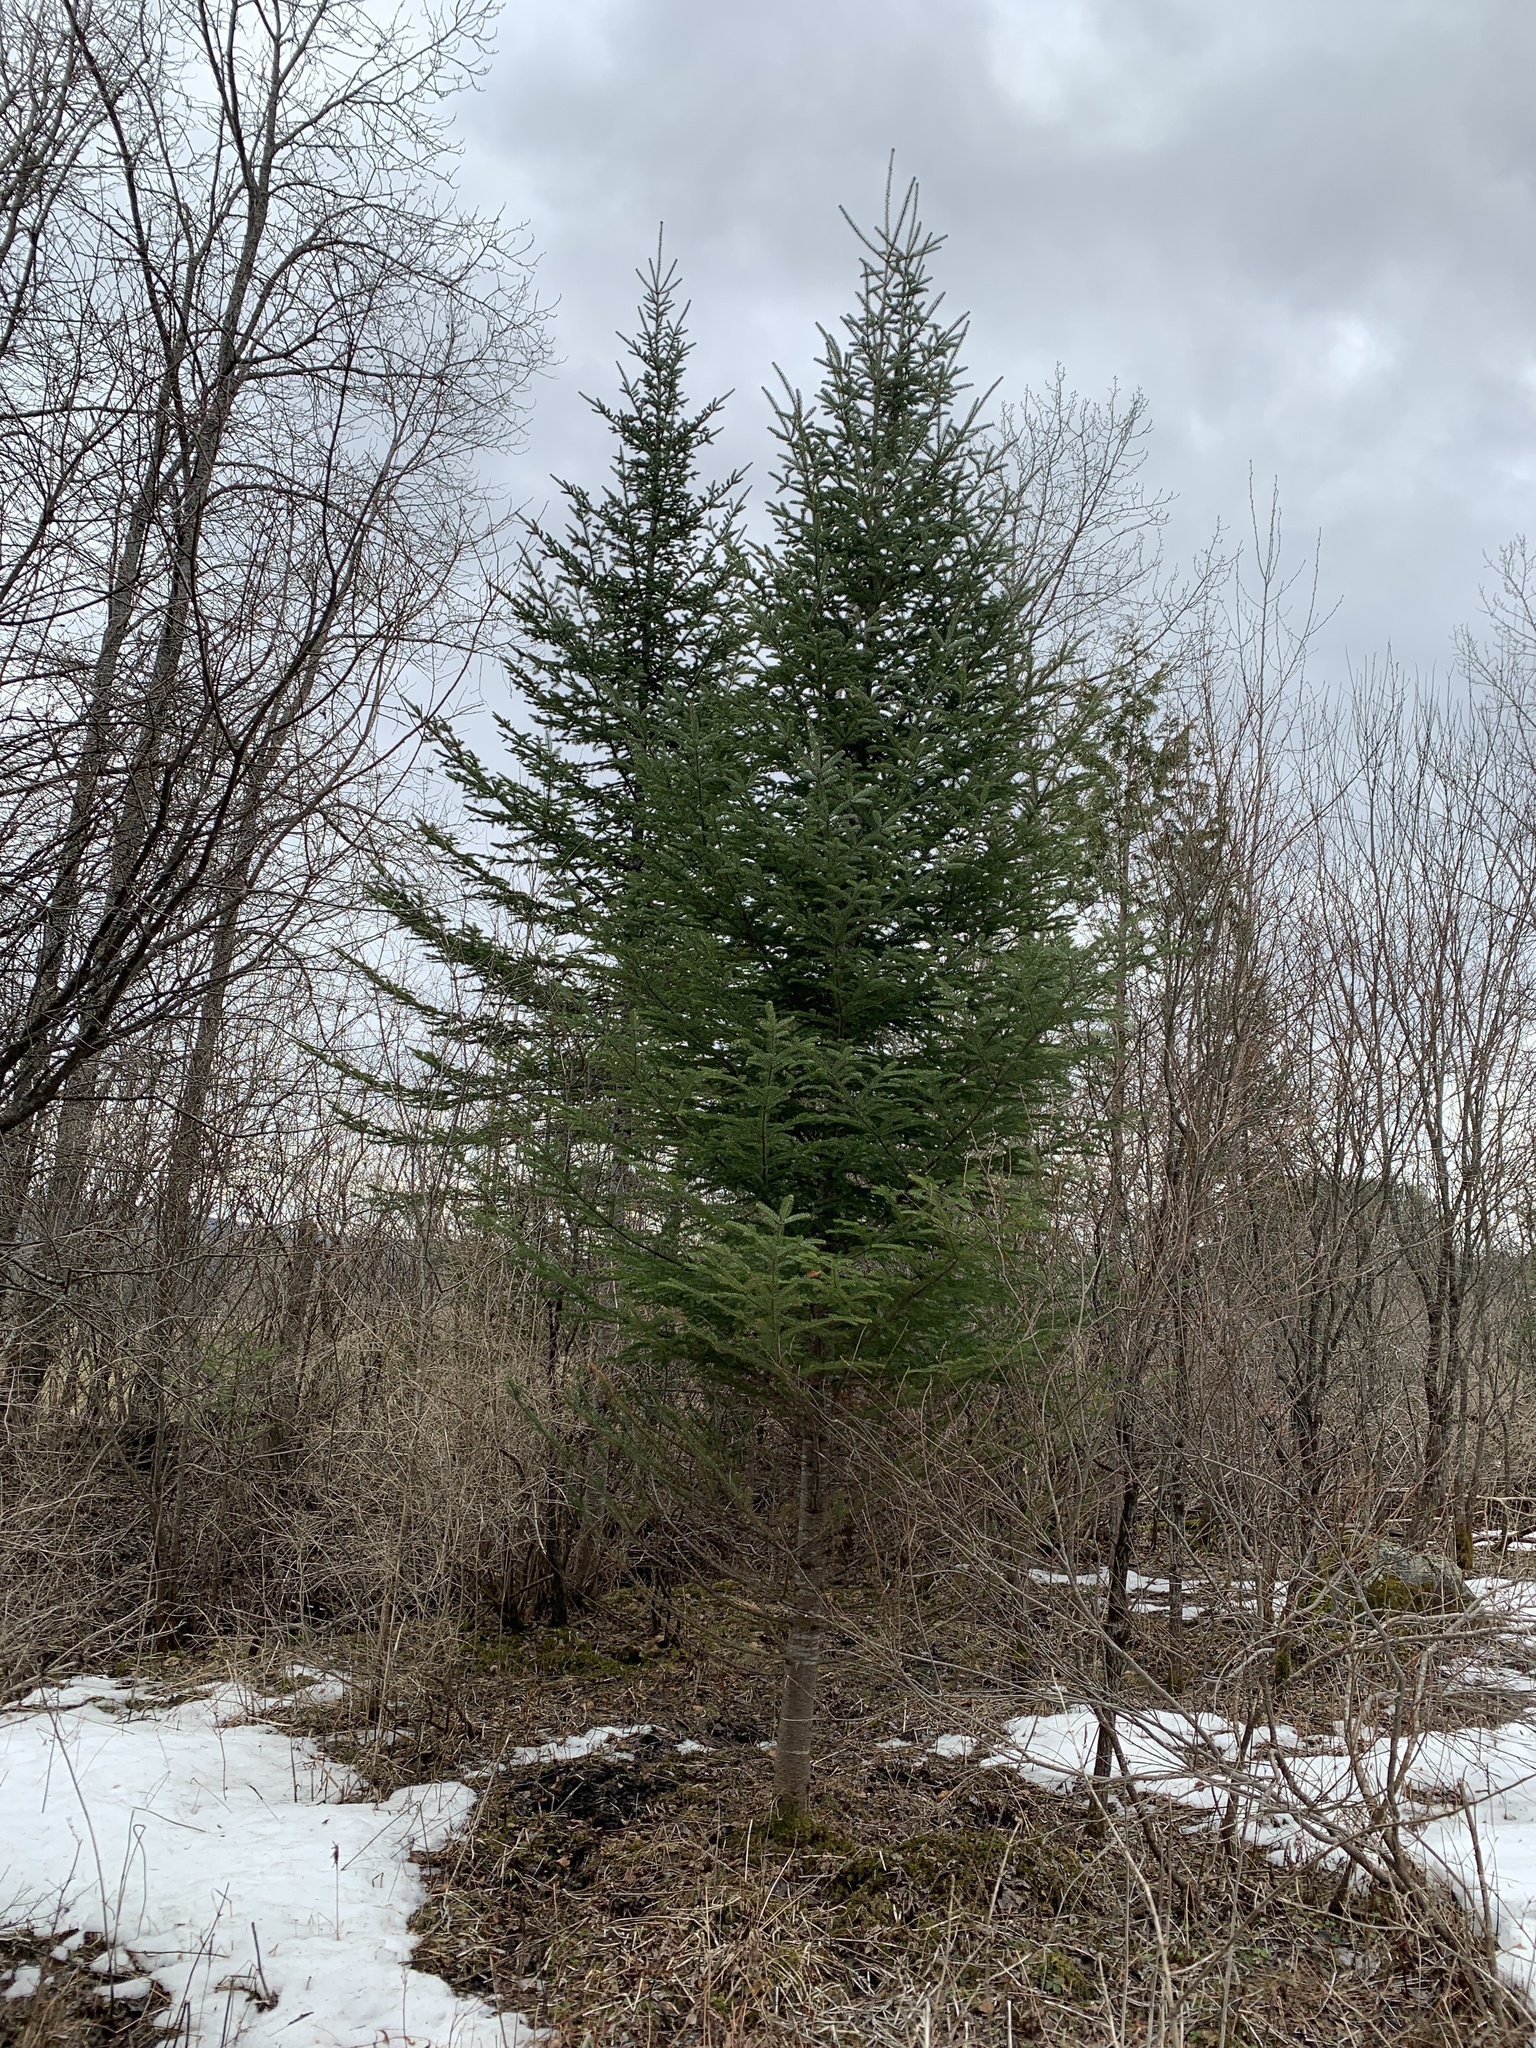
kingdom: Plantae
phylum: Tracheophyta
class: Pinopsida
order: Pinales
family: Pinaceae
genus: Abies
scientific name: Abies balsamea
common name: Balsam fir
